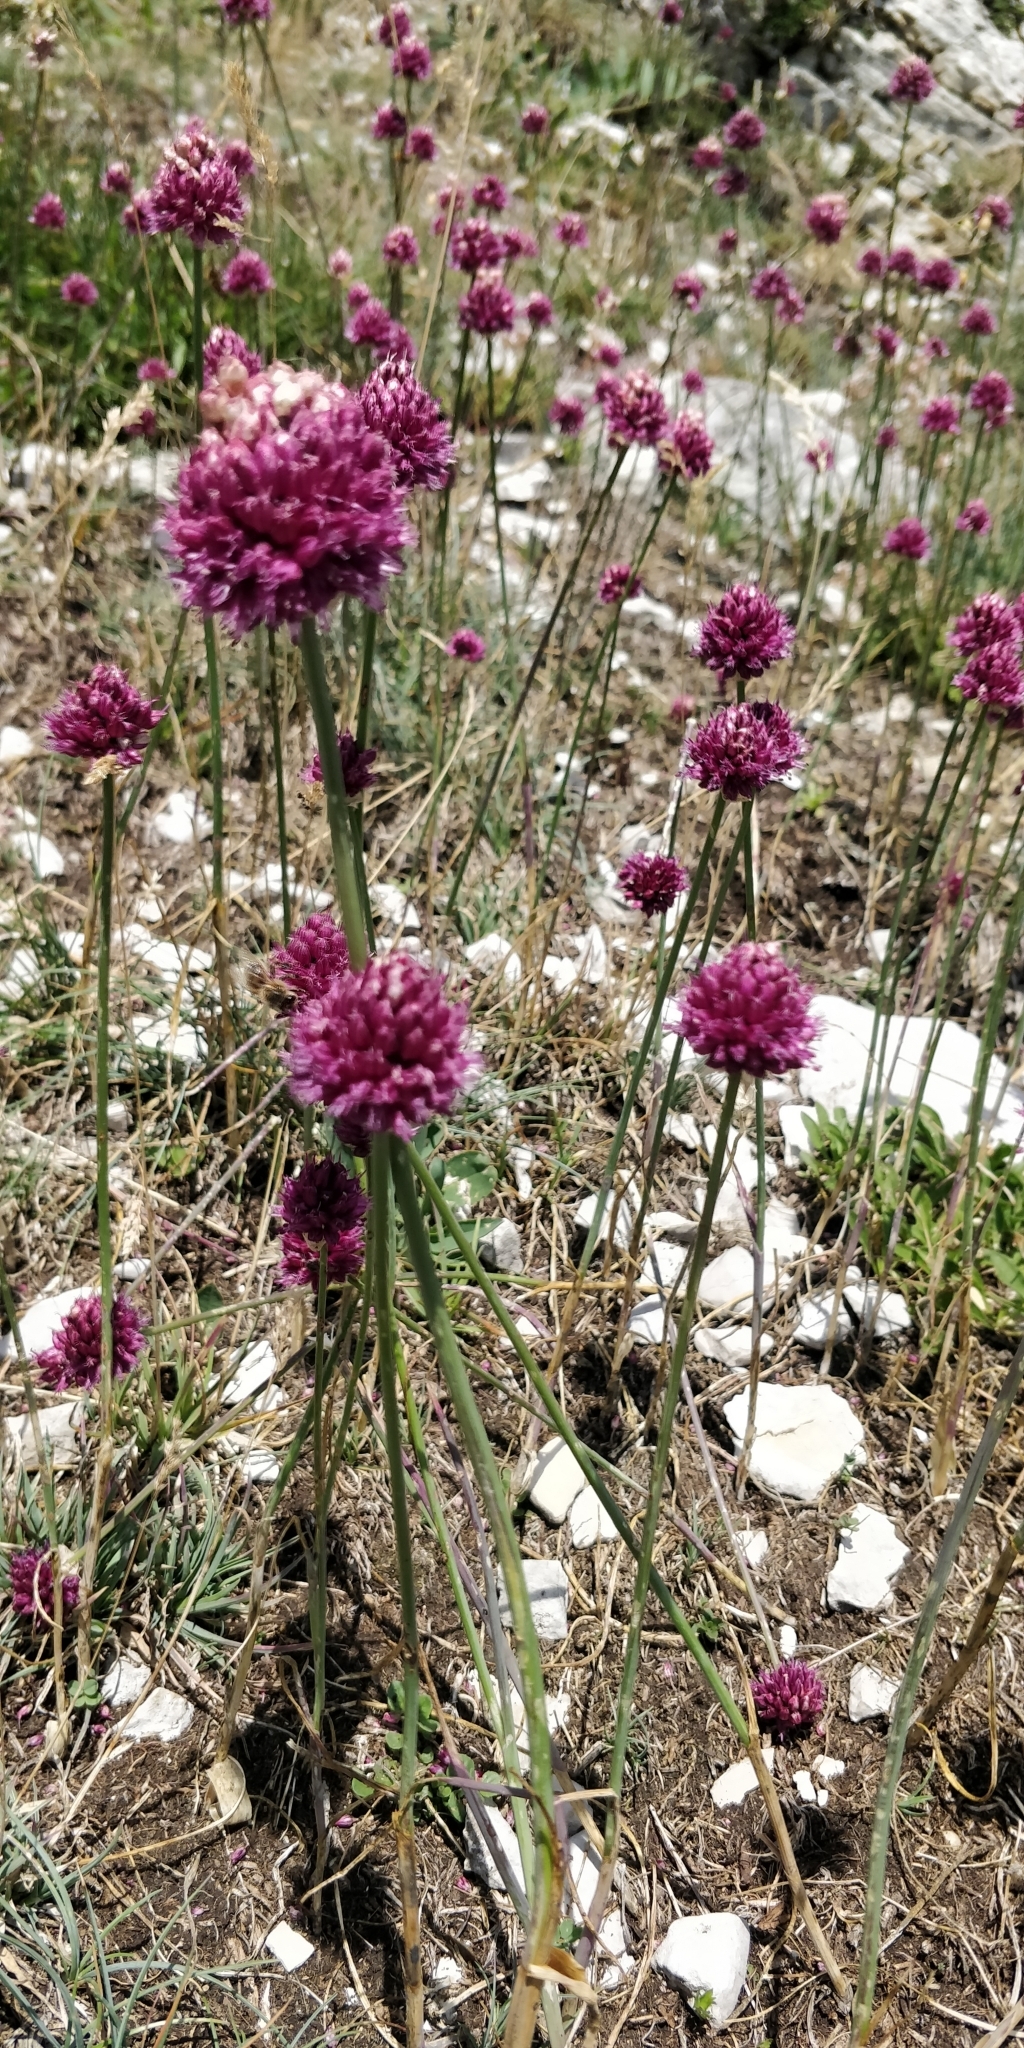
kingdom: Plantae
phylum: Tracheophyta
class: Liliopsida
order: Asparagales
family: Amaryllidaceae
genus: Allium
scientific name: Allium sphaerocephalon
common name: Round-headed leek
